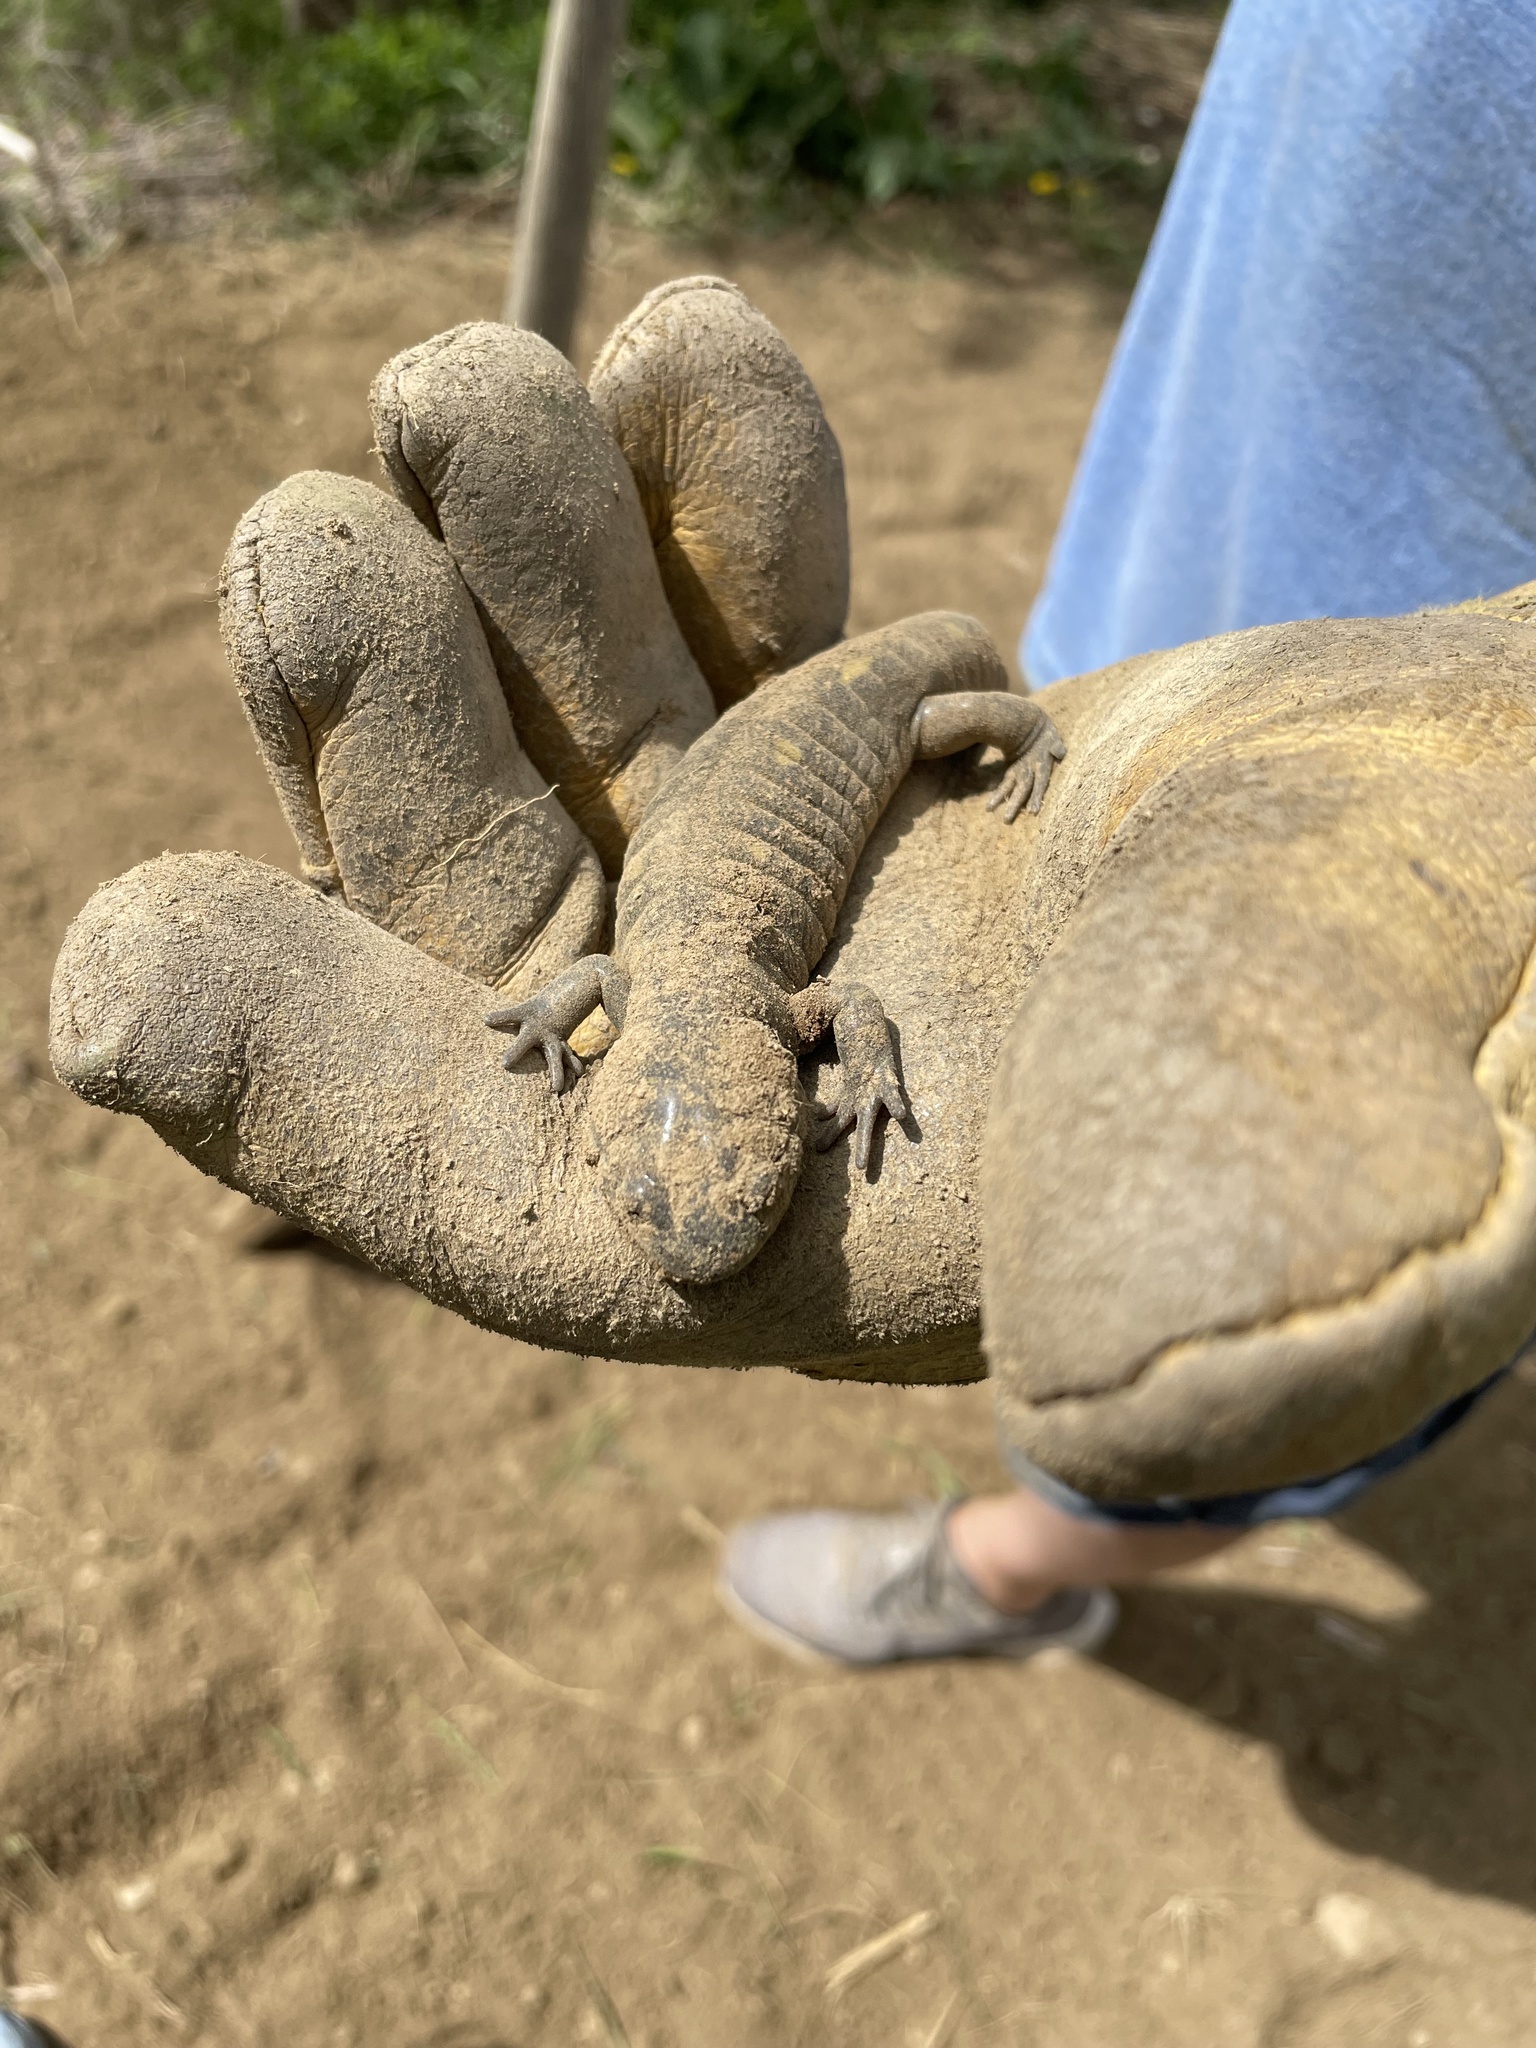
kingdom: Animalia
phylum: Chordata
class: Amphibia
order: Caudata
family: Ambystomatidae
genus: Ambystoma
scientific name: Ambystoma maculatum
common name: Spotted salamander
